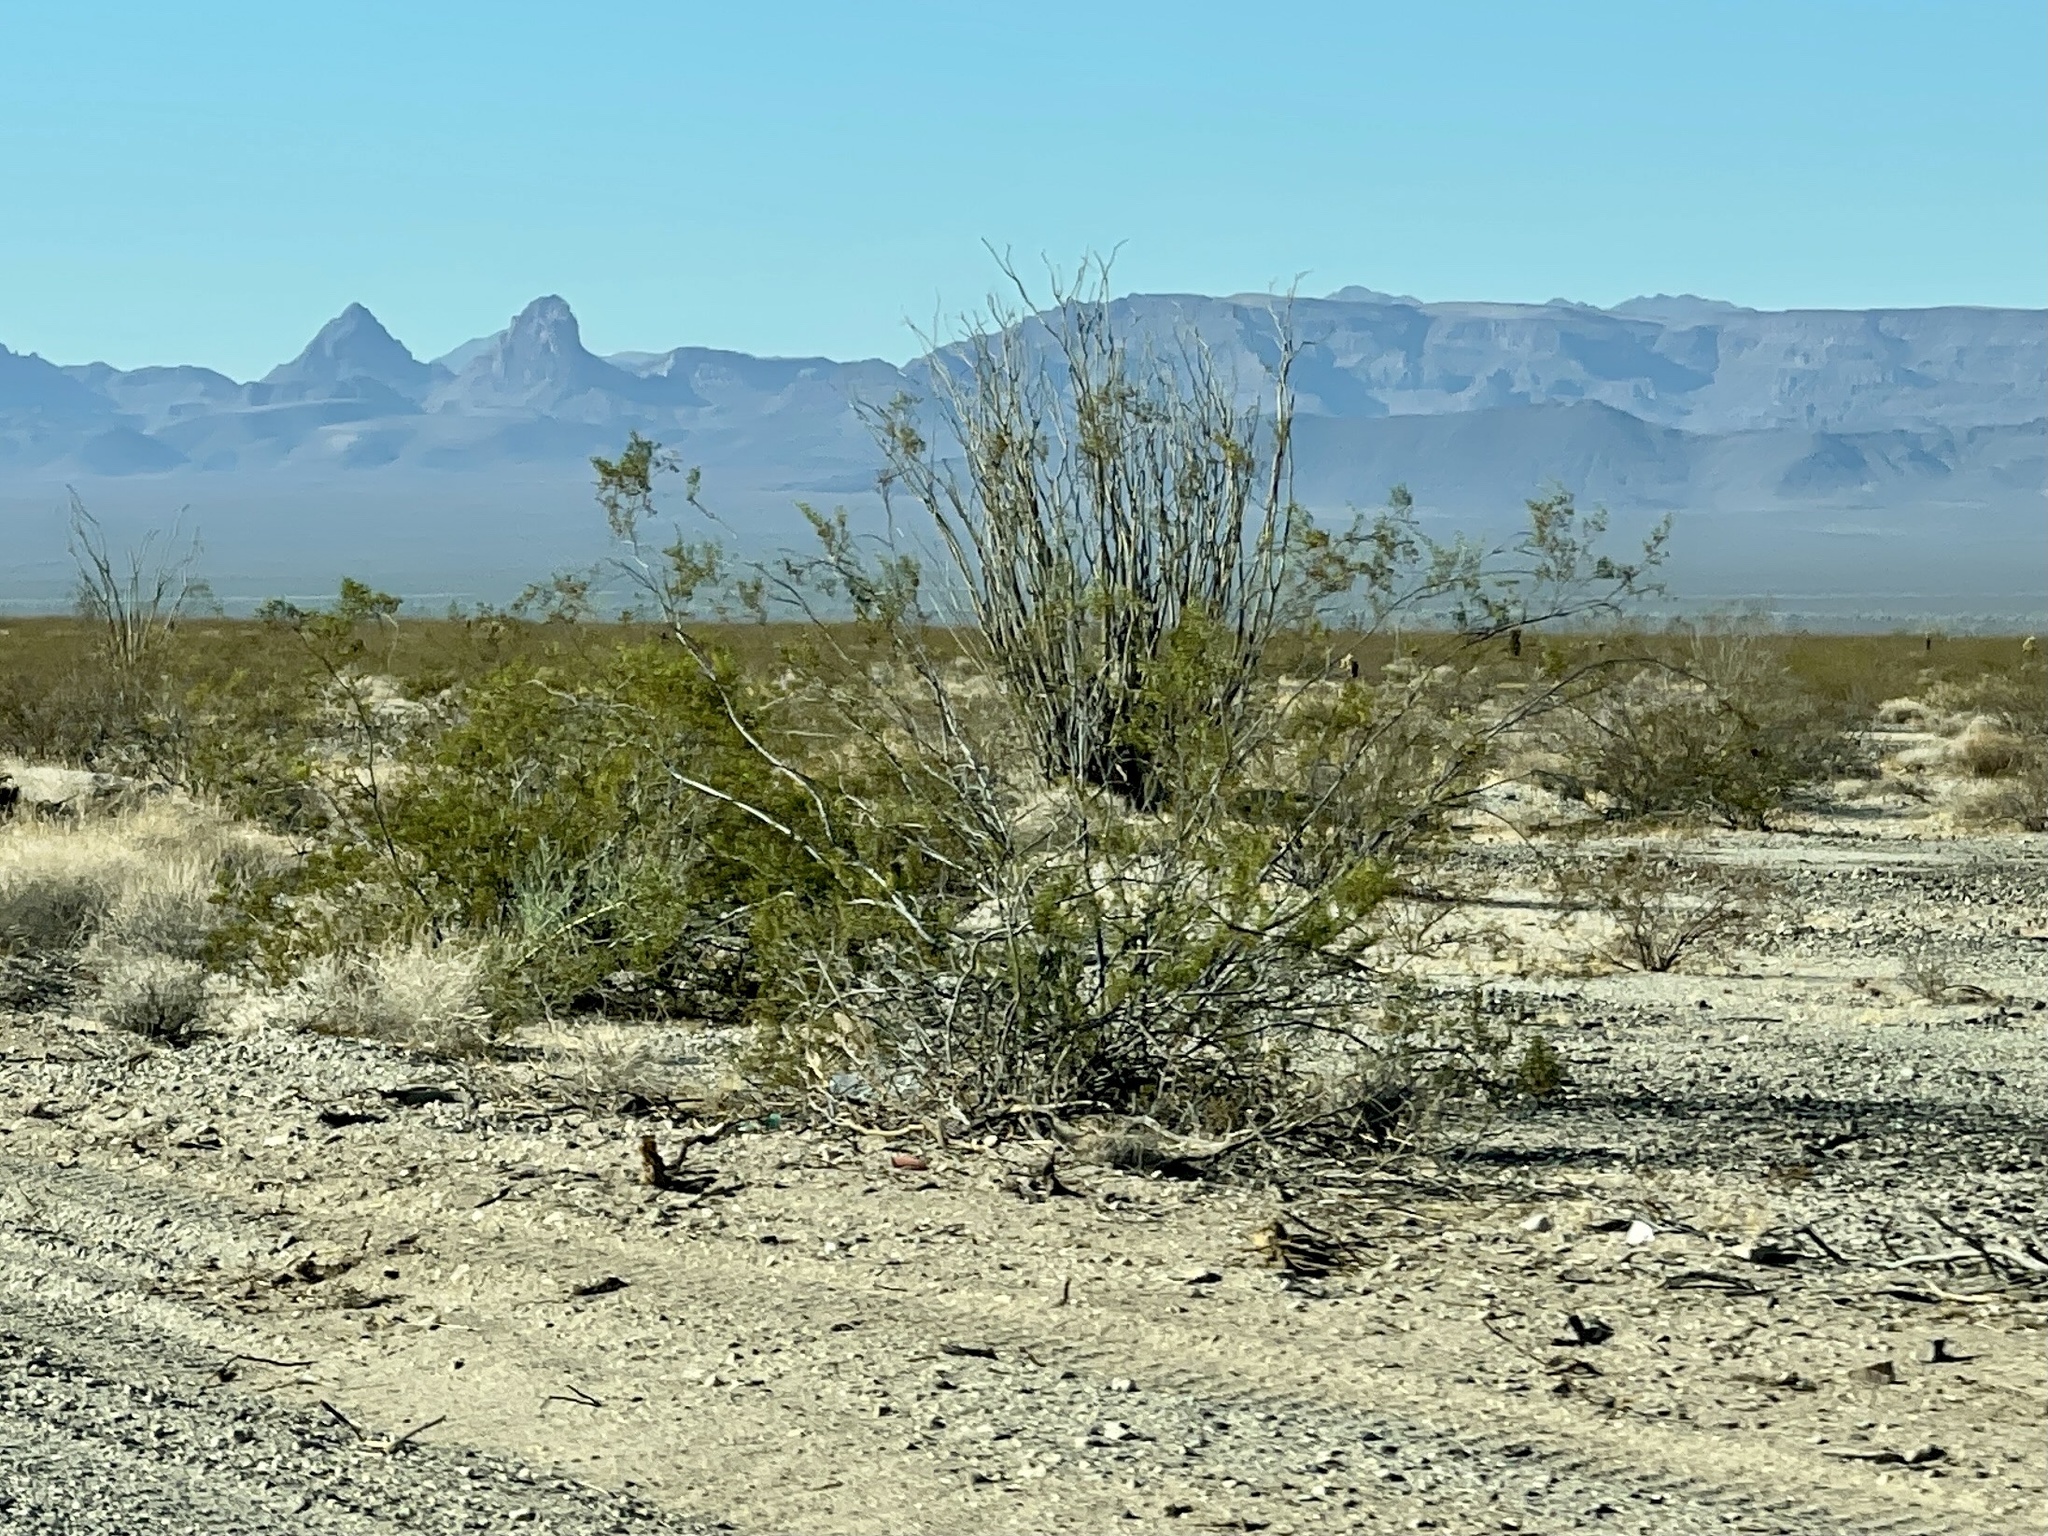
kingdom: Plantae
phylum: Tracheophyta
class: Magnoliopsida
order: Zygophyllales
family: Zygophyllaceae
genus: Larrea
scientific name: Larrea tridentata
